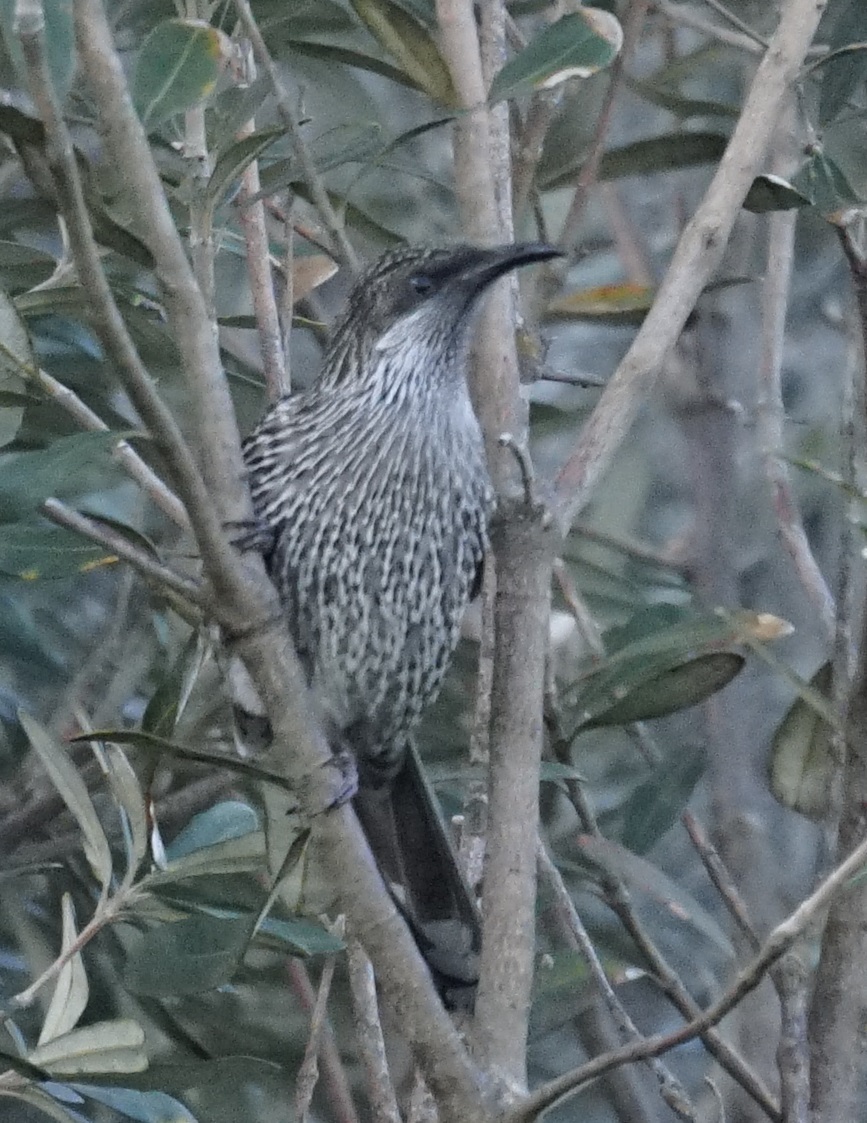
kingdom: Animalia
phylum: Chordata
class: Aves
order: Passeriformes
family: Meliphagidae
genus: Anthochaera
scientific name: Anthochaera chrysoptera
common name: Little wattlebird
